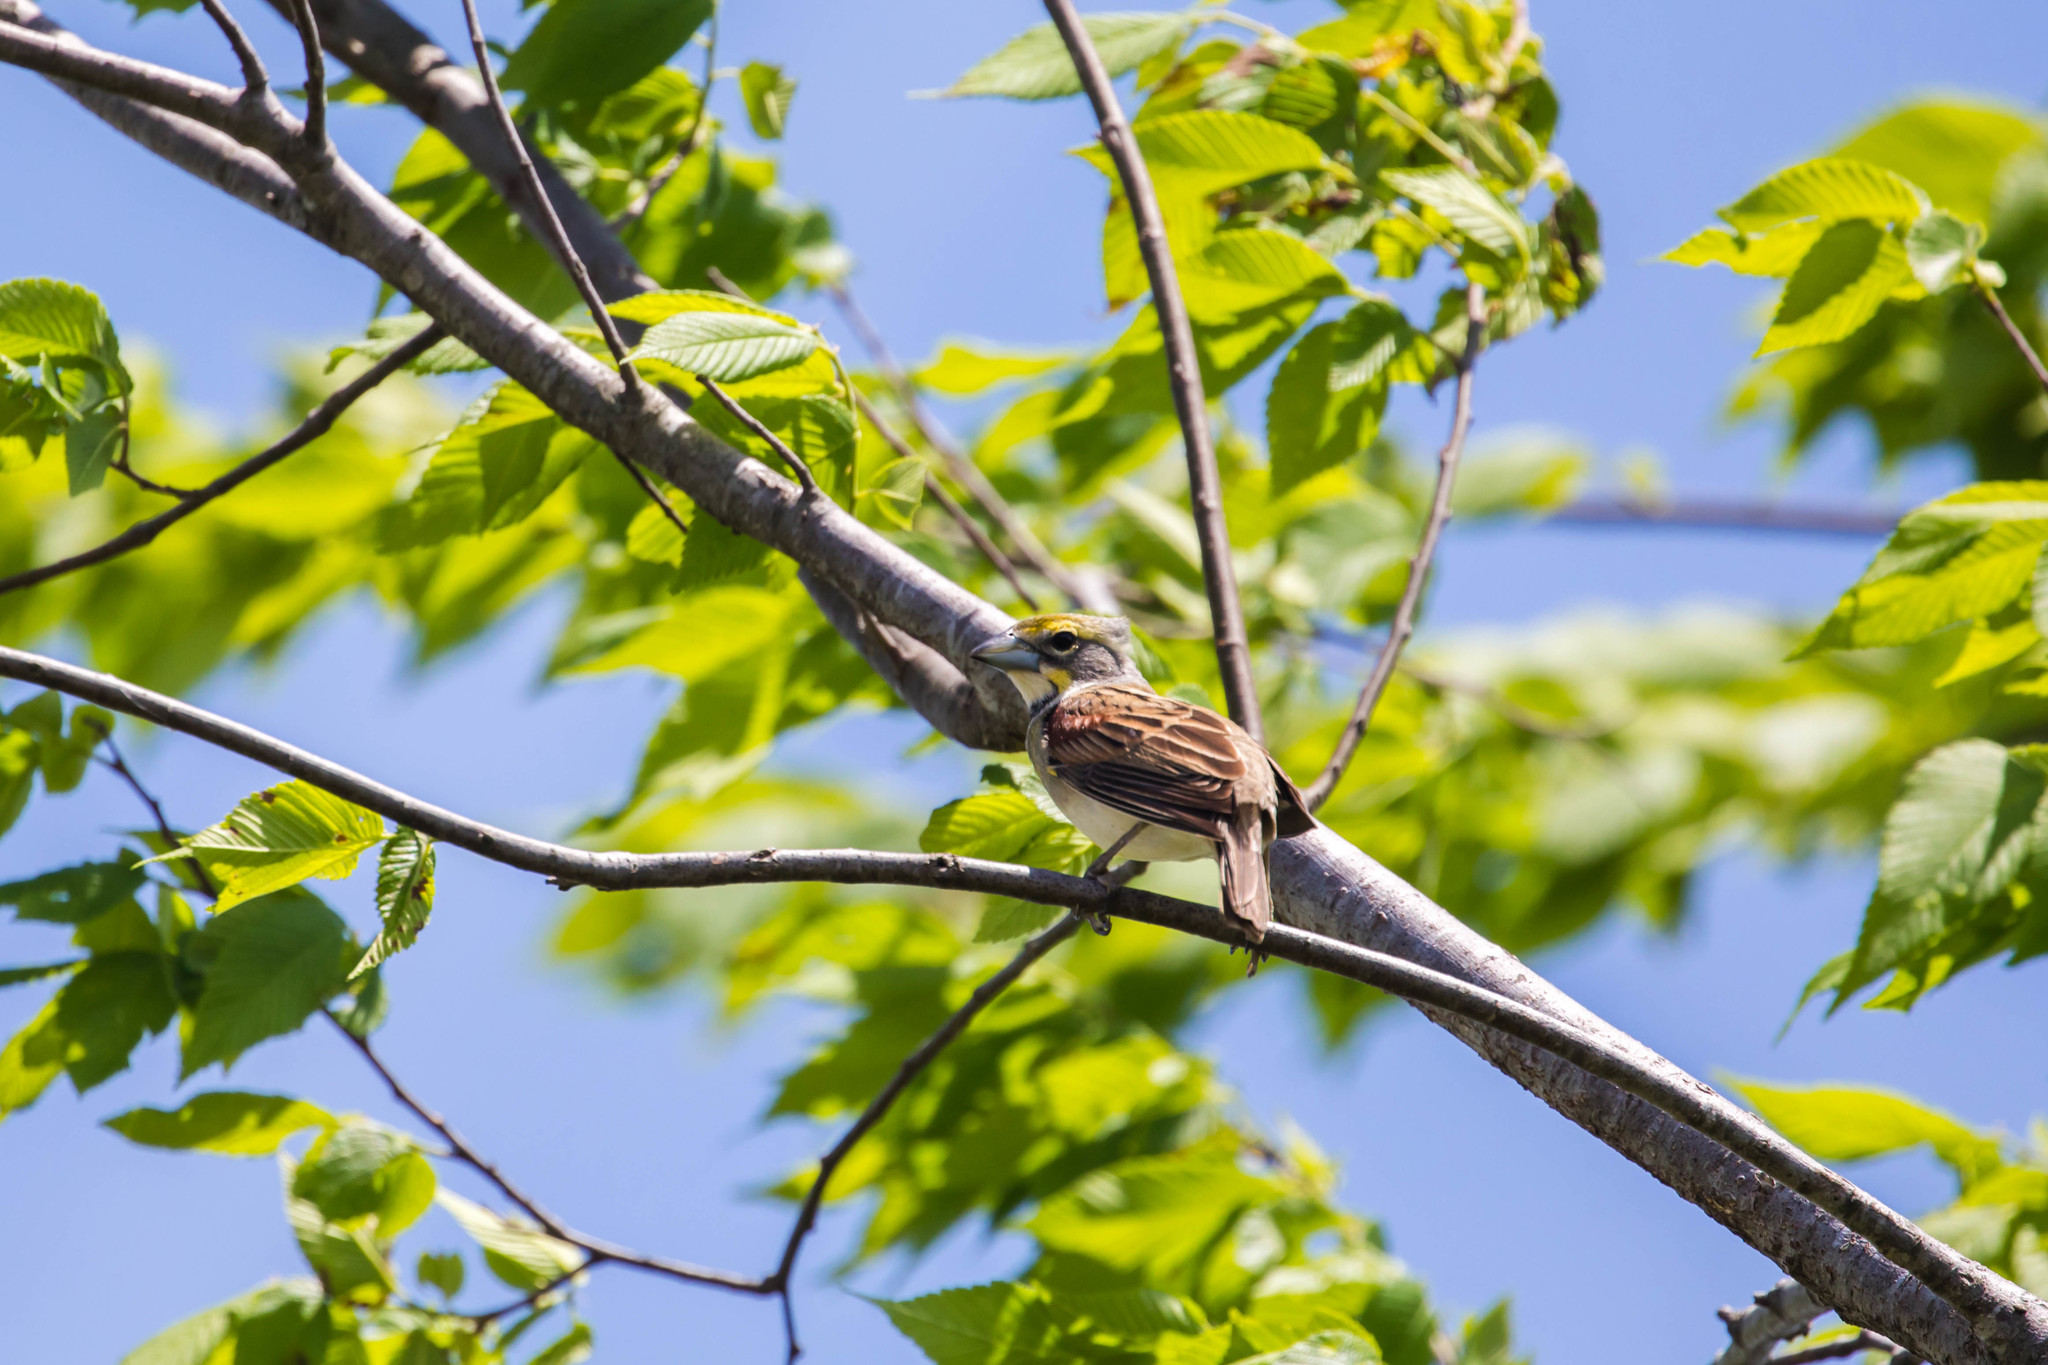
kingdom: Animalia
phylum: Chordata
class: Aves
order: Passeriformes
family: Cardinalidae
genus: Spiza
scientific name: Spiza americana
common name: Dickcissel
